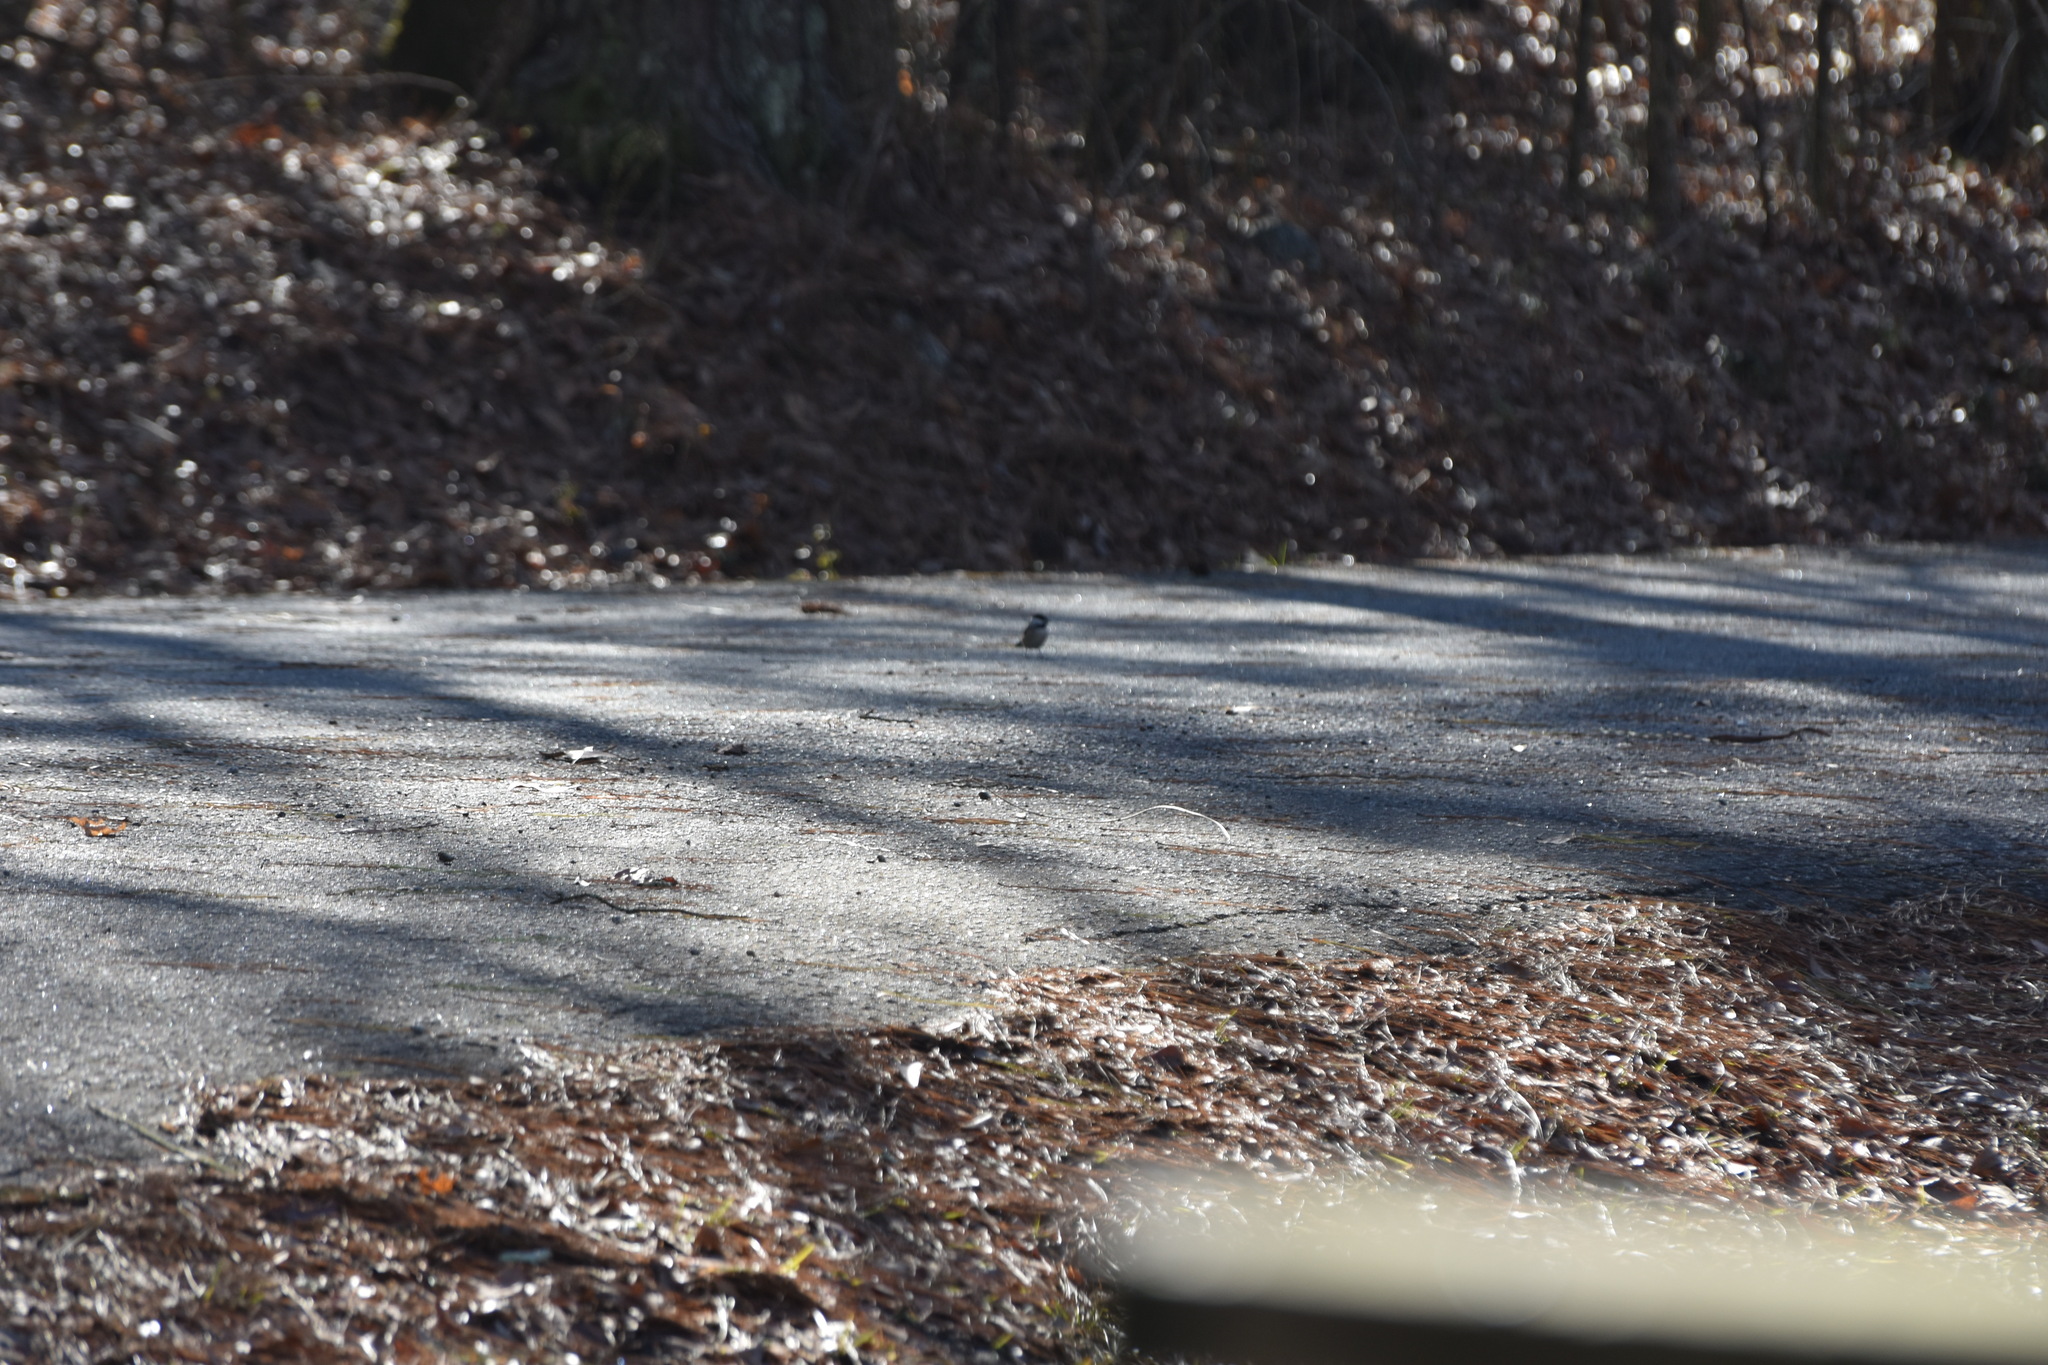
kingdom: Animalia
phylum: Chordata
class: Aves
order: Passeriformes
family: Paridae
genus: Poecile
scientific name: Poecile carolinensis
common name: Carolina chickadee
